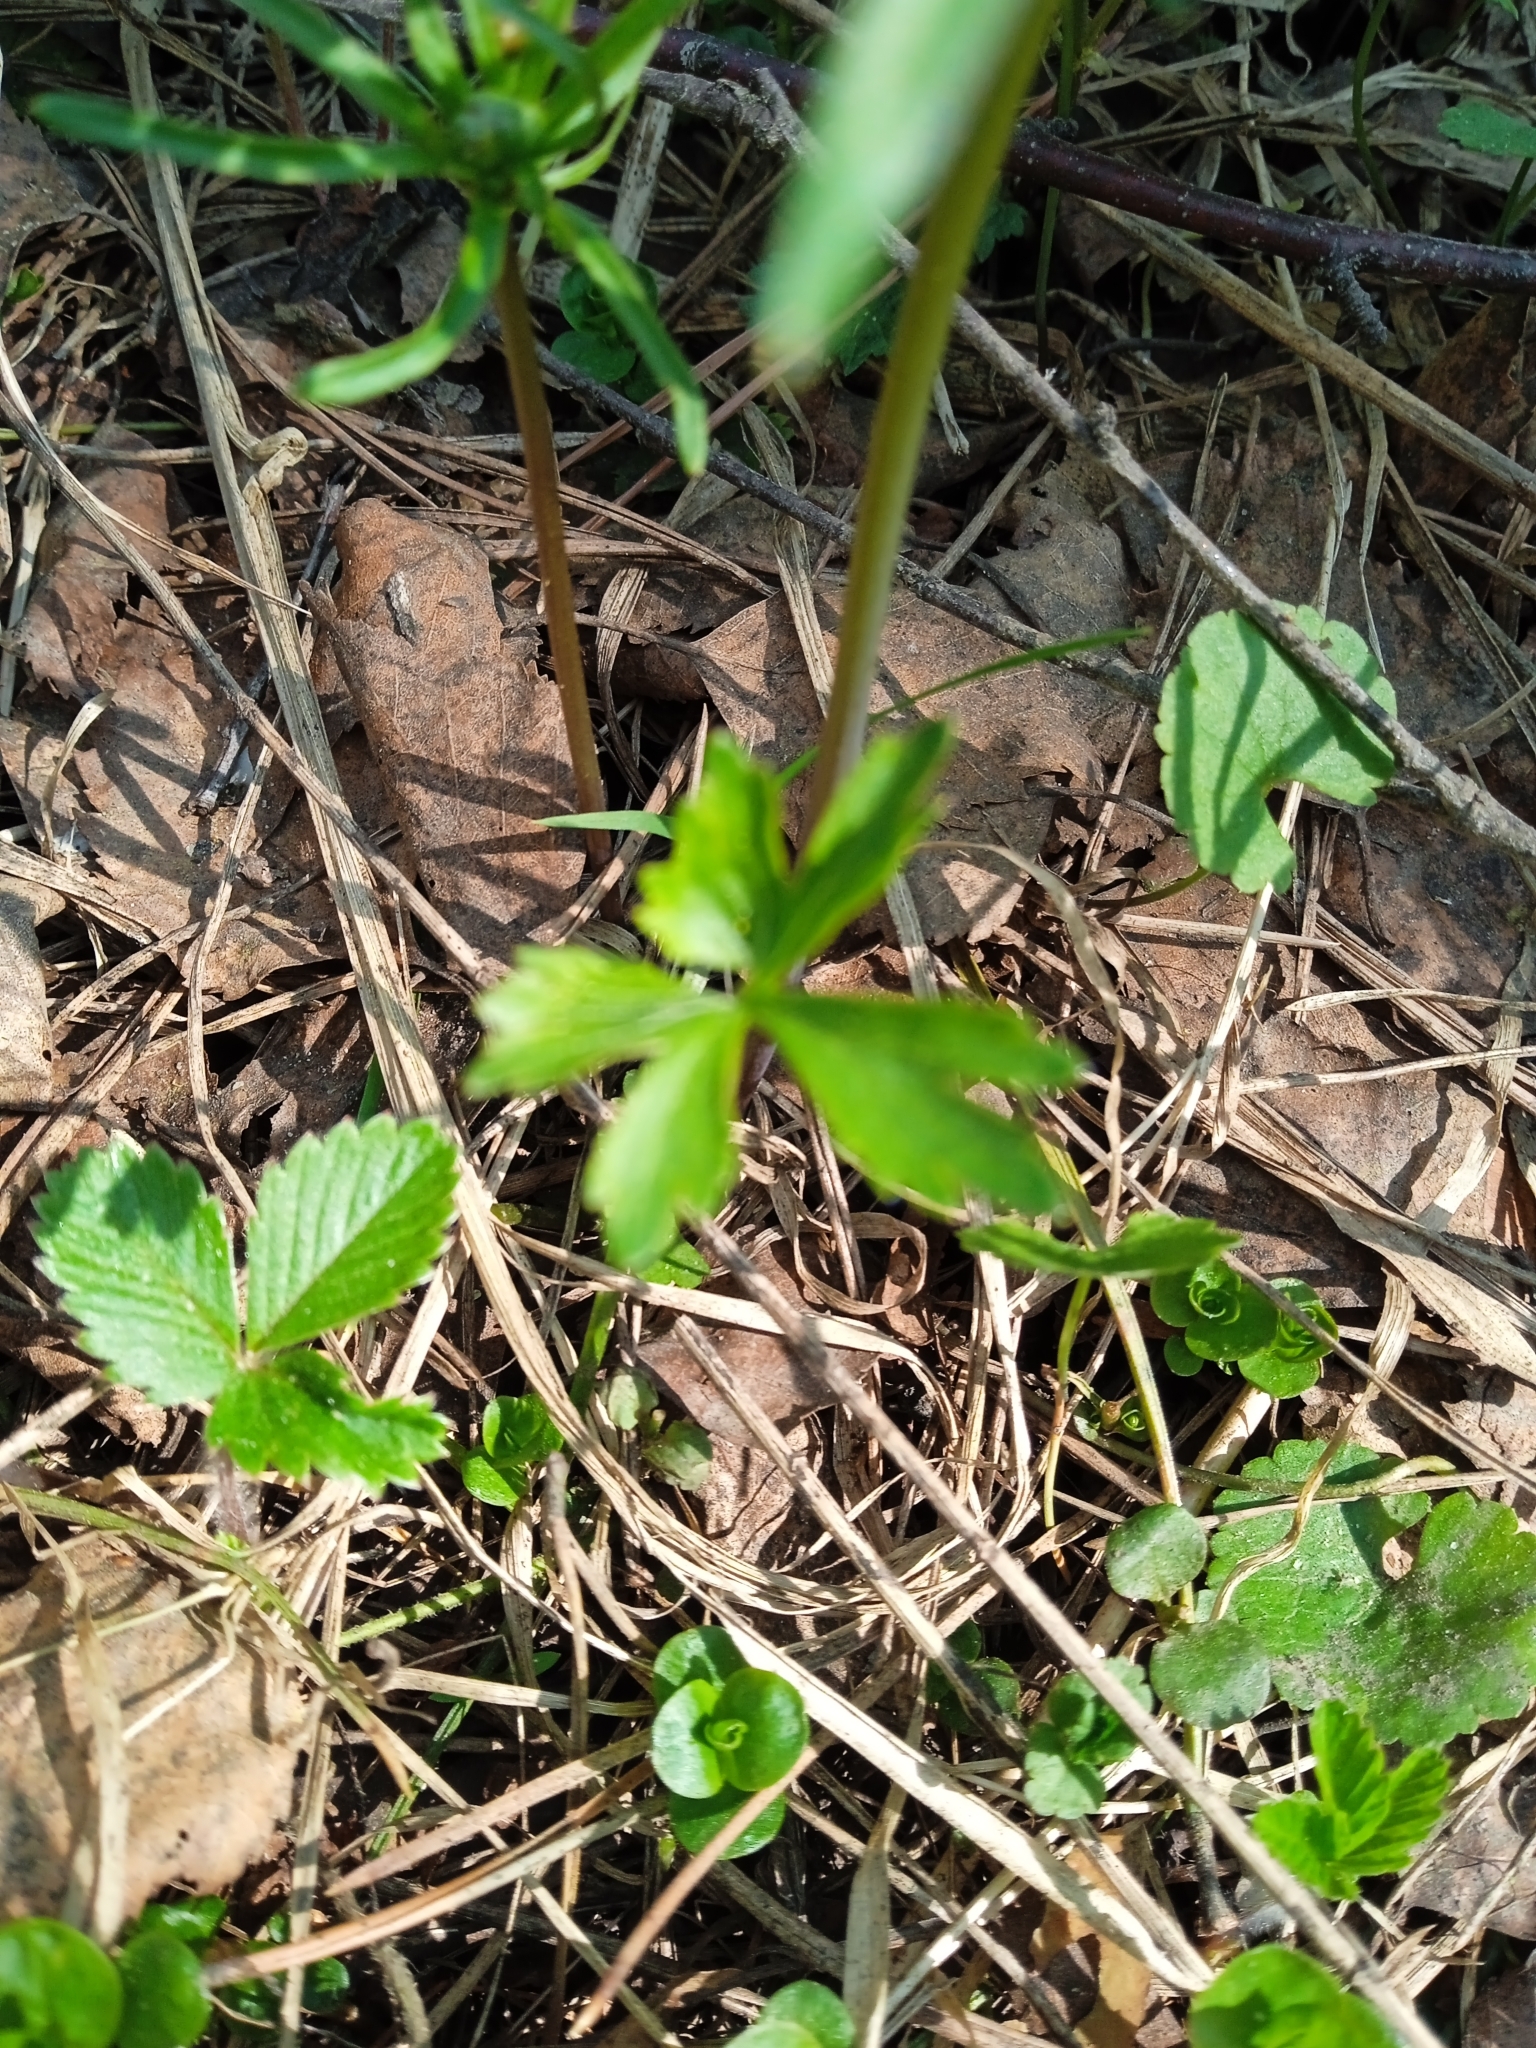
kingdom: Plantae
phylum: Tracheophyta
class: Magnoliopsida
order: Ranunculales
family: Ranunculaceae
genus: Ranunculus
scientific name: Ranunculus auricomus
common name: Goldilocks buttercup
